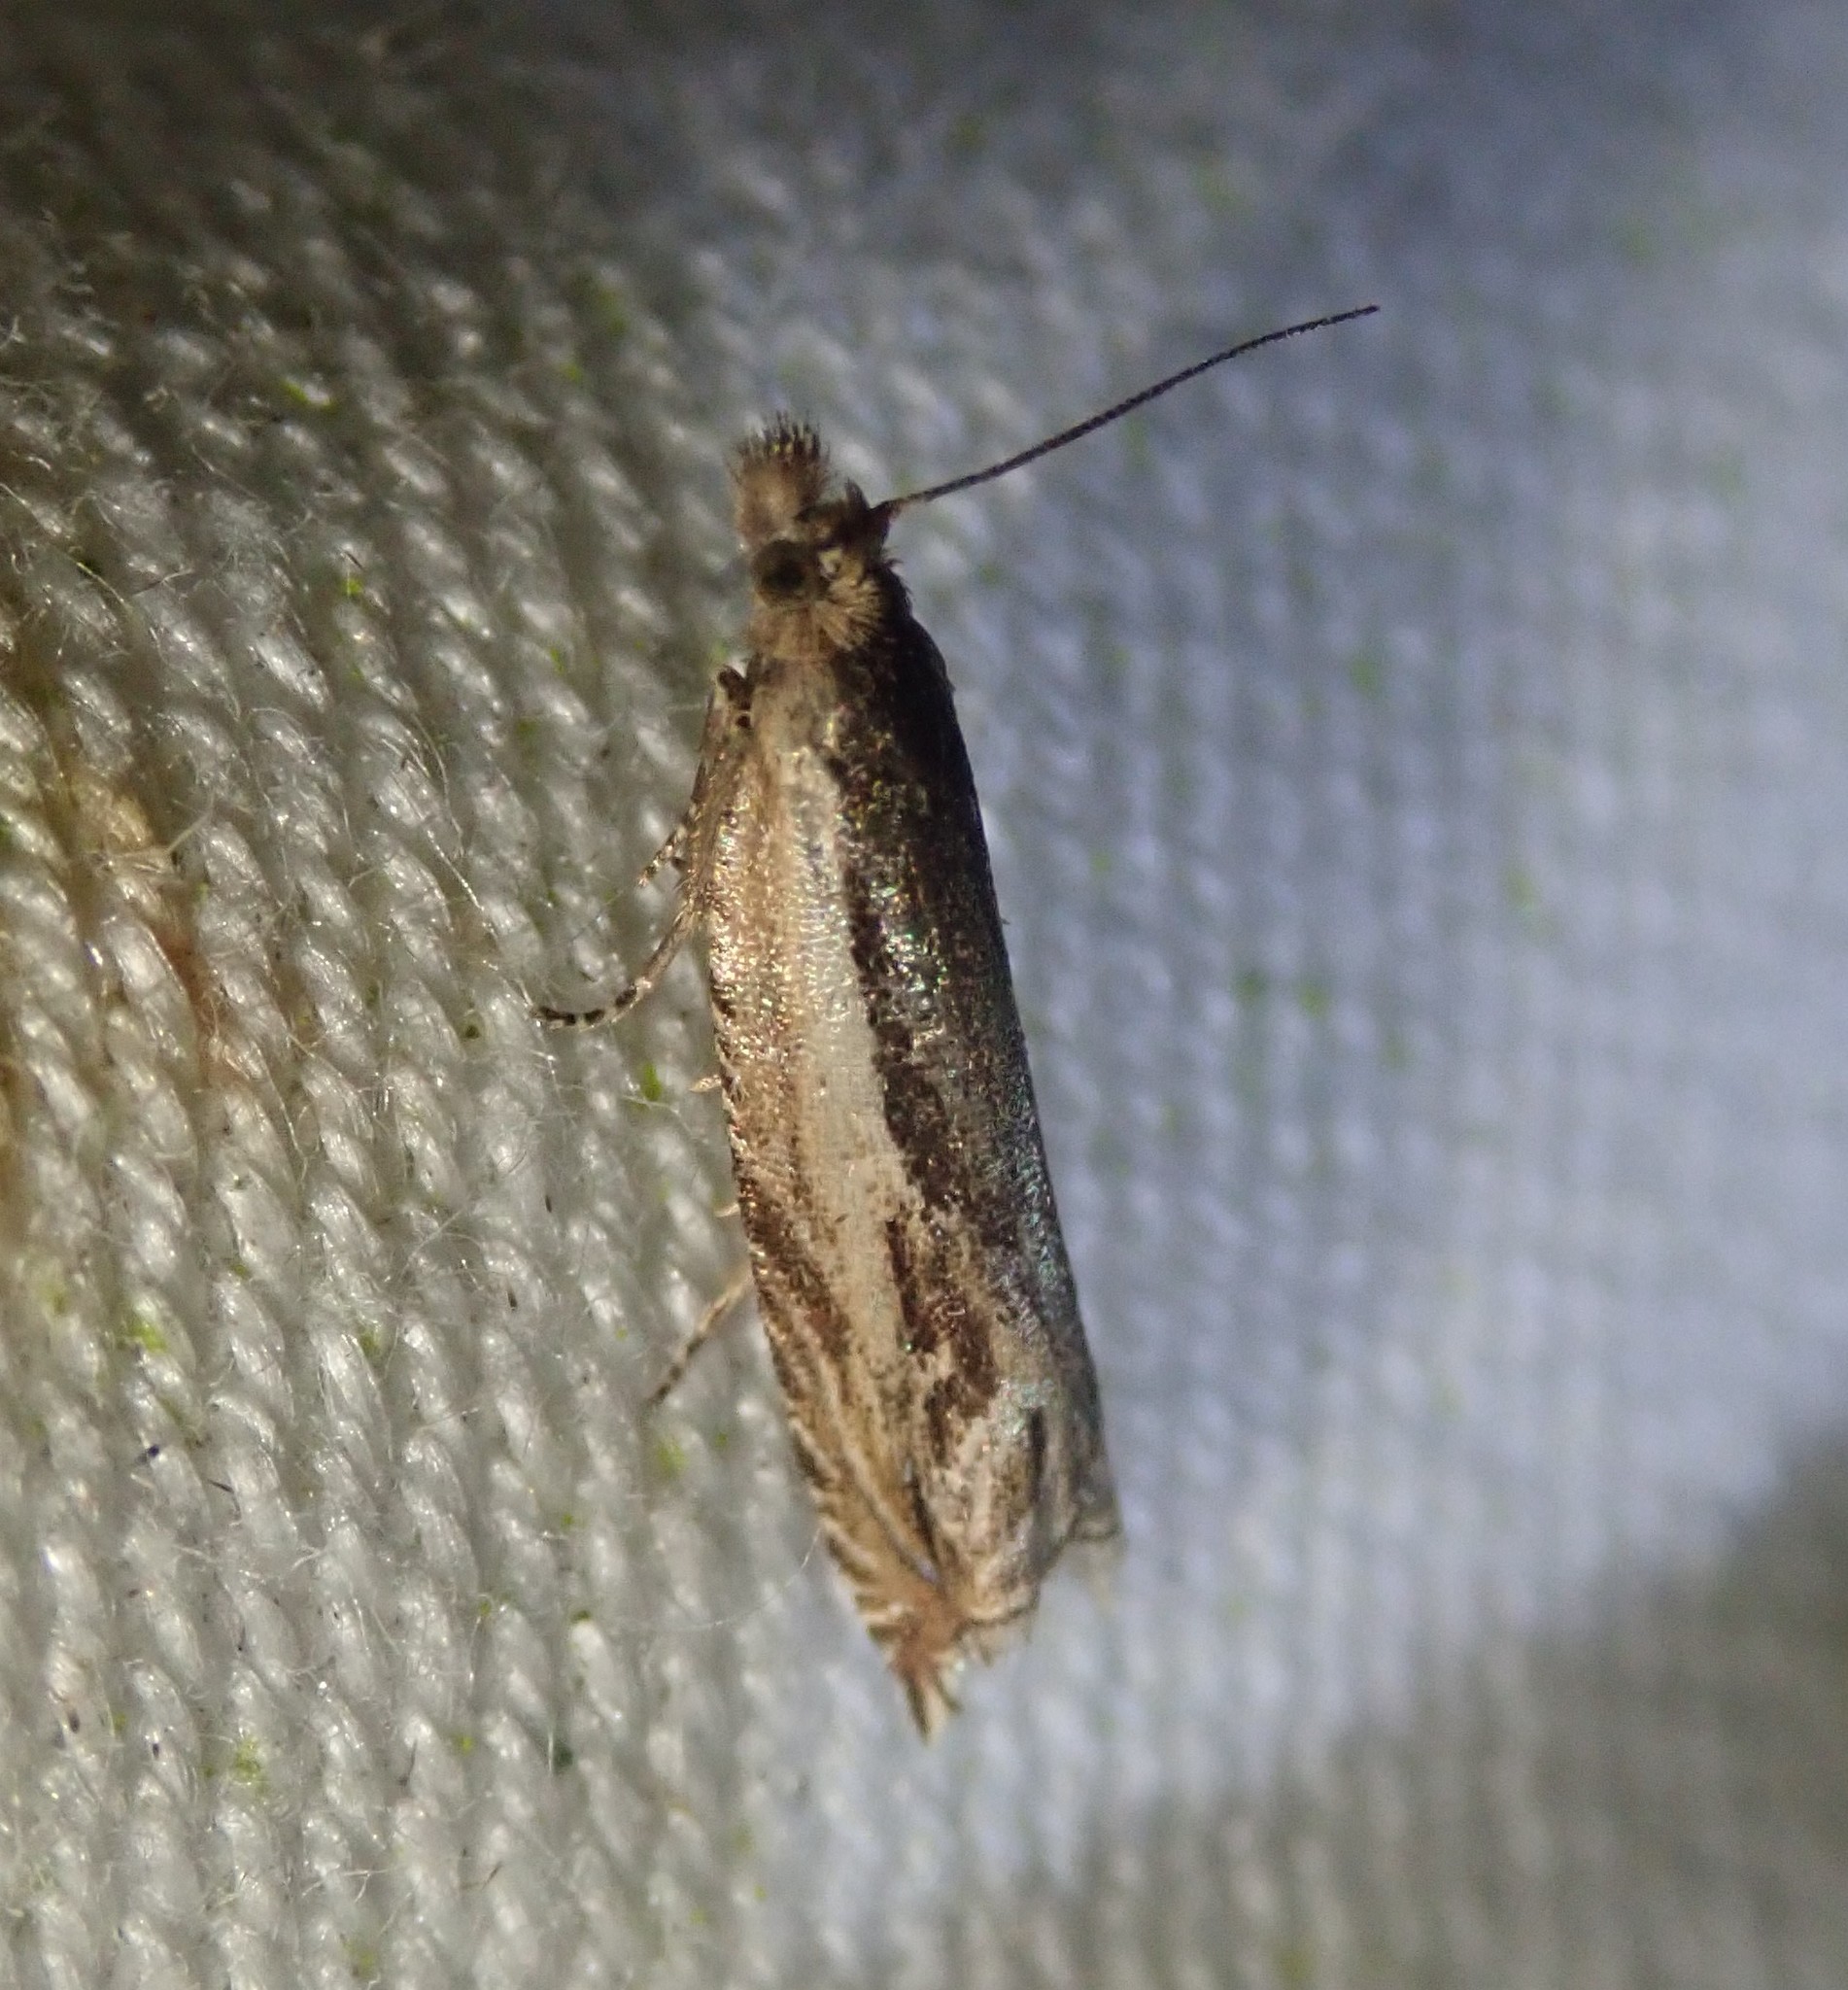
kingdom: Animalia
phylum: Arthropoda
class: Insecta
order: Lepidoptera
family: Tortricidae
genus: Ancylis
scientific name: Ancylis apicella
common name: Hook-tipped roller
